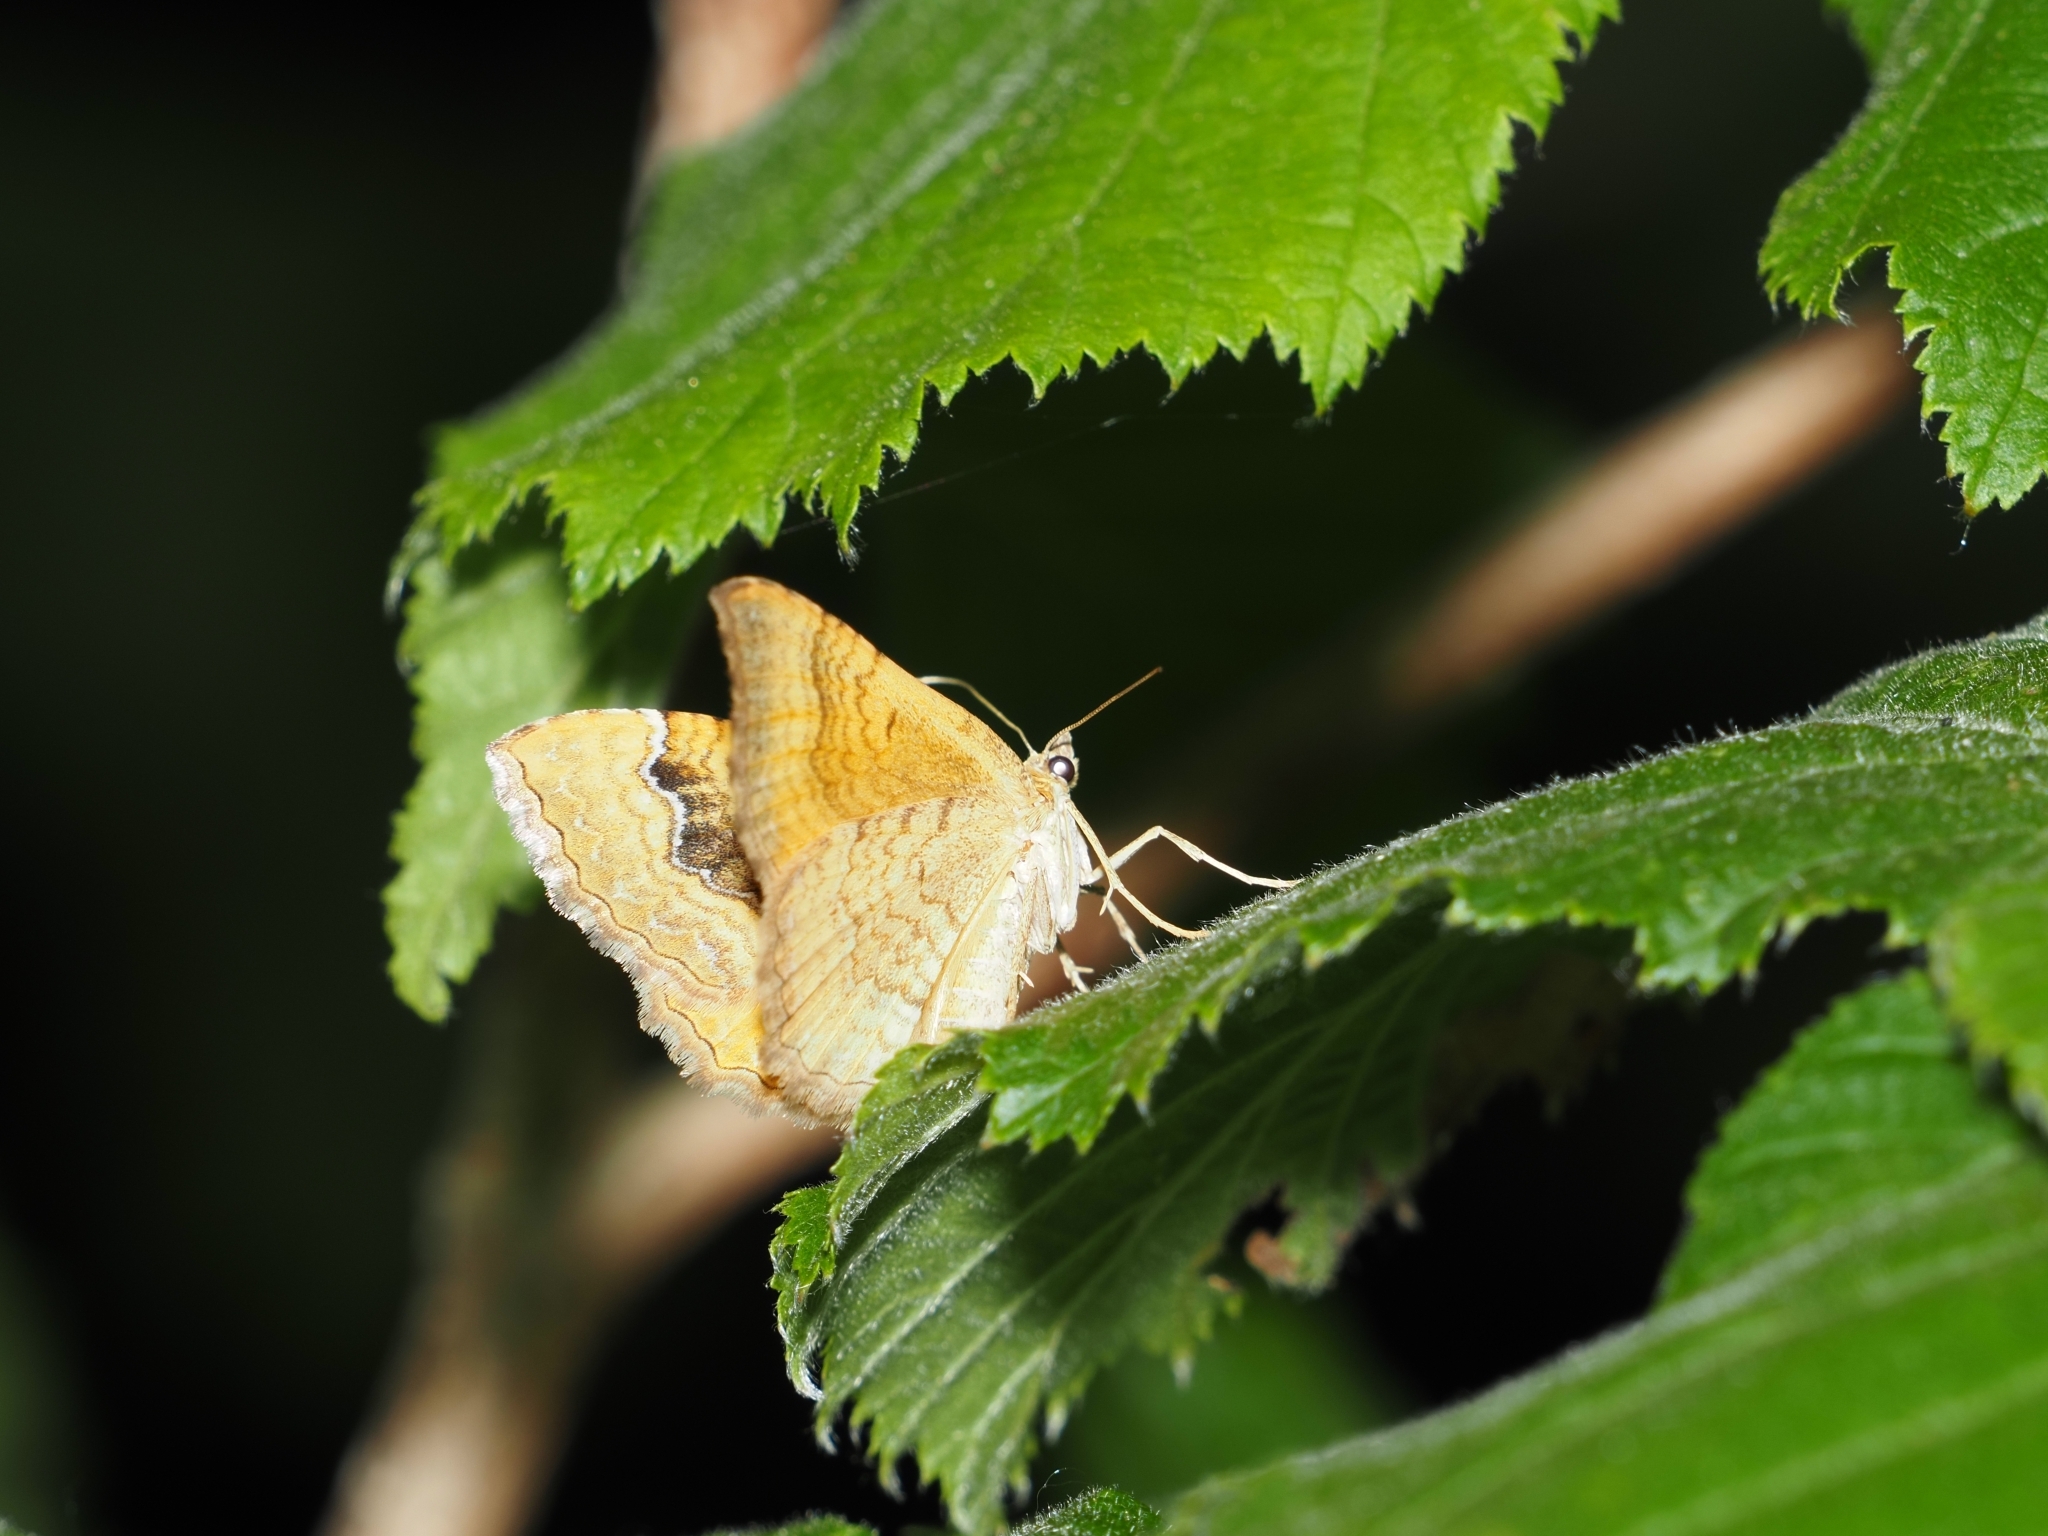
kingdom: Animalia
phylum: Arthropoda
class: Insecta
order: Lepidoptera
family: Geometridae
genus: Camptogramma
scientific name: Camptogramma bilineata
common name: Yellow shell
